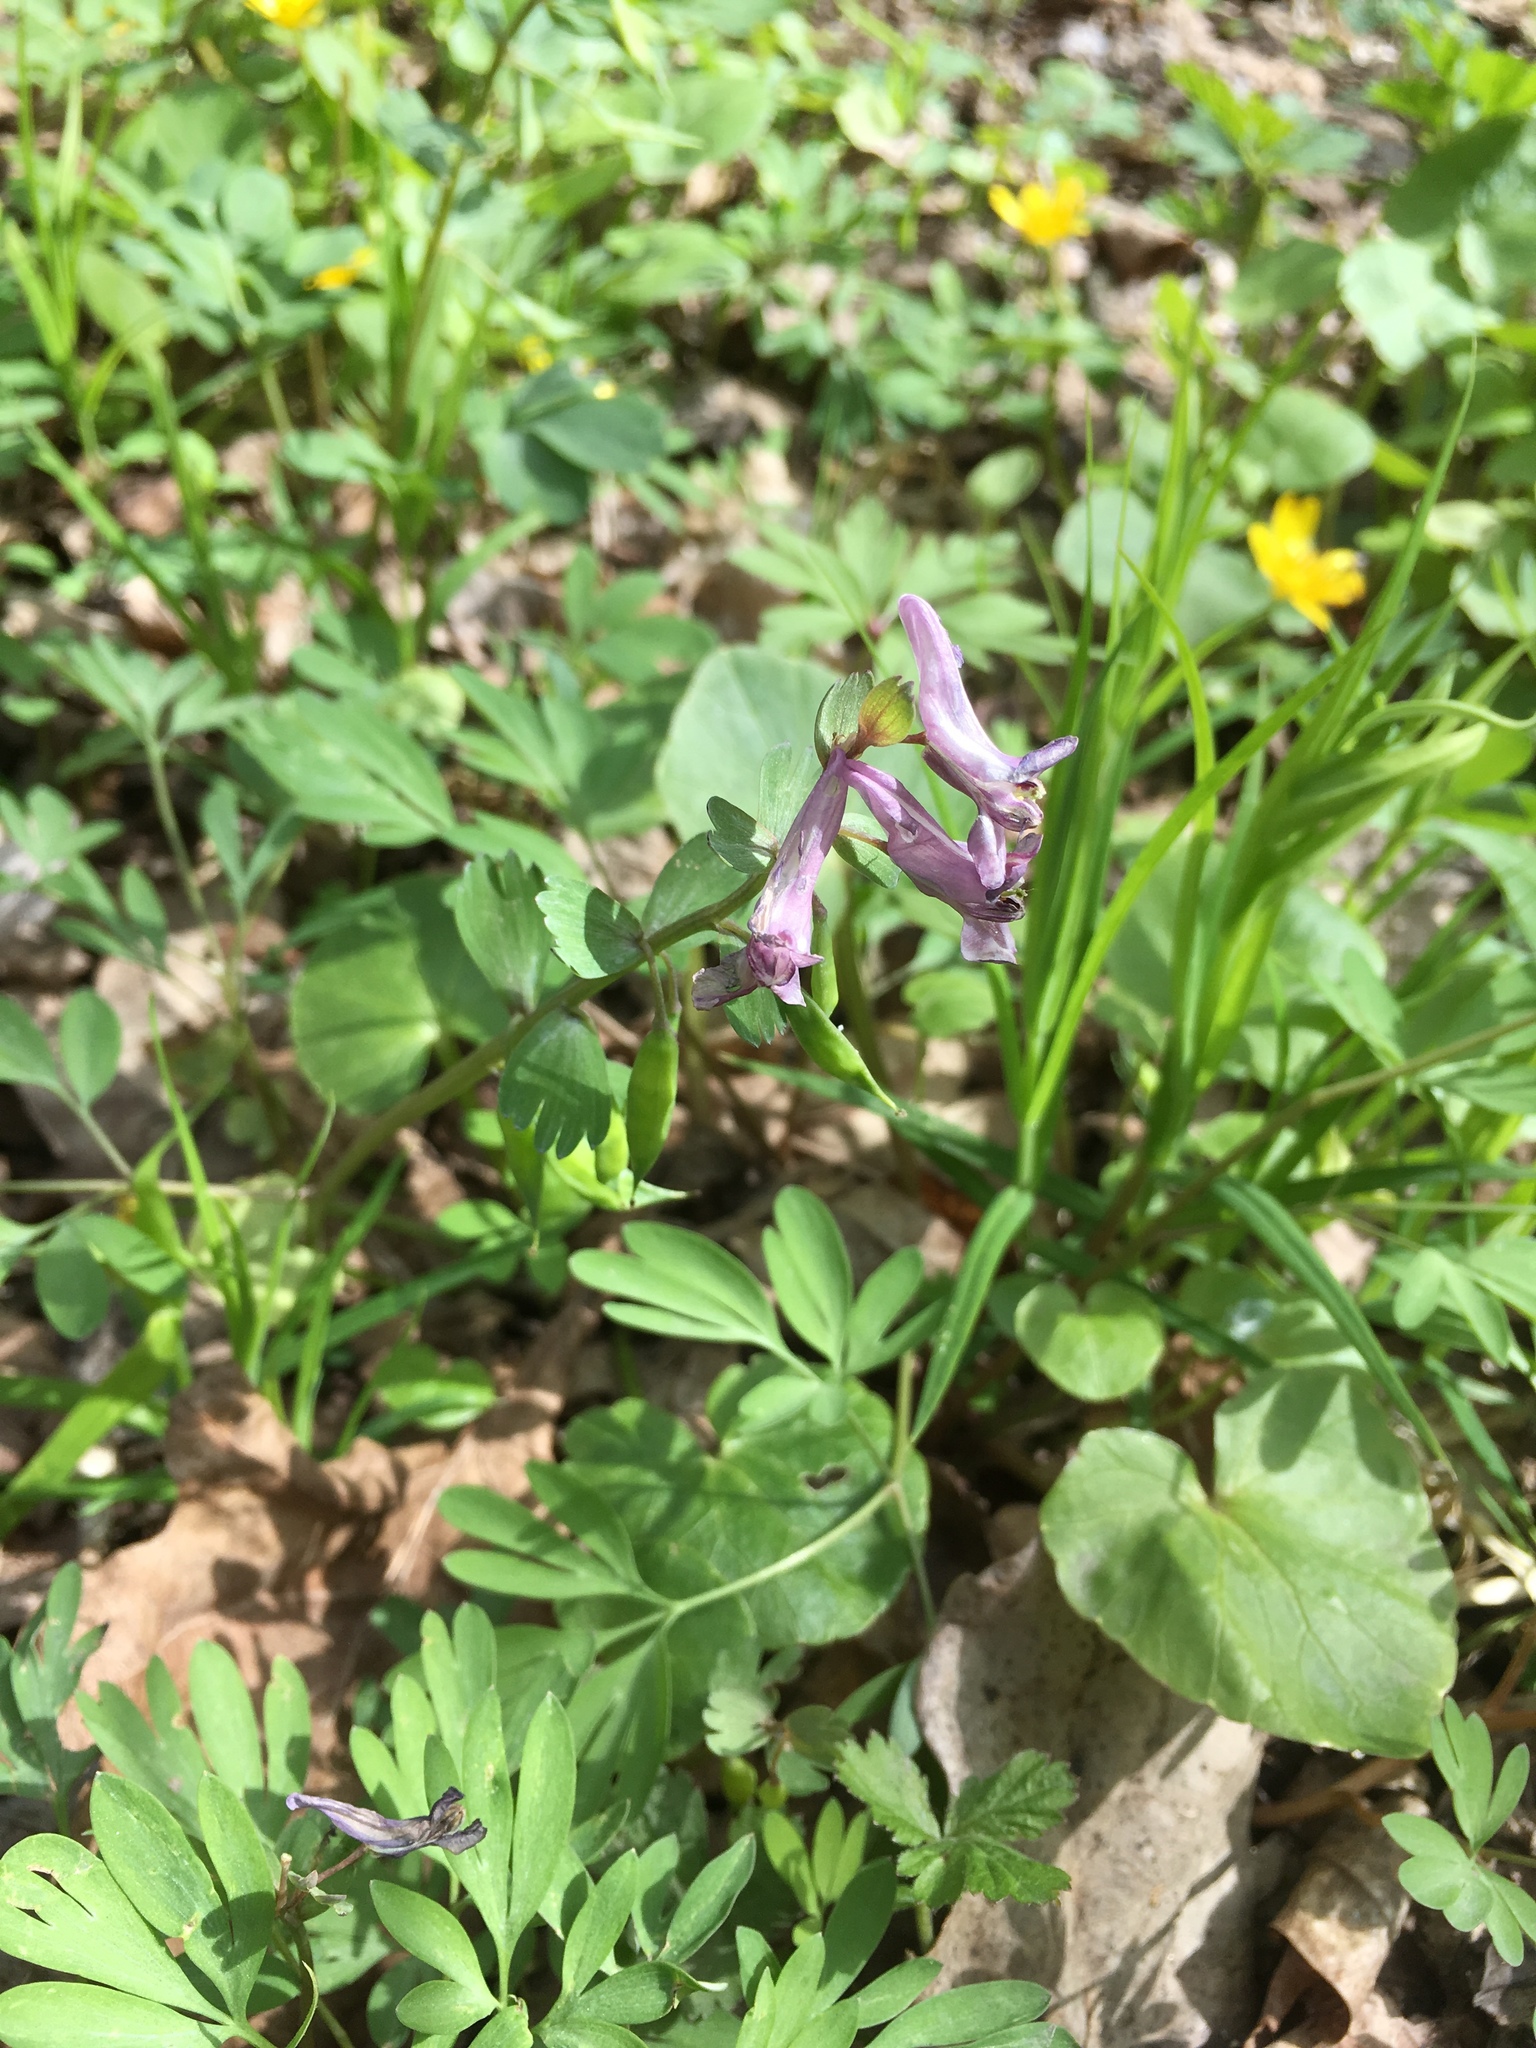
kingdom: Plantae
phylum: Tracheophyta
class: Magnoliopsida
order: Ranunculales
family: Papaveraceae
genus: Corydalis
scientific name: Corydalis solida
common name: Bird-in-a-bush
